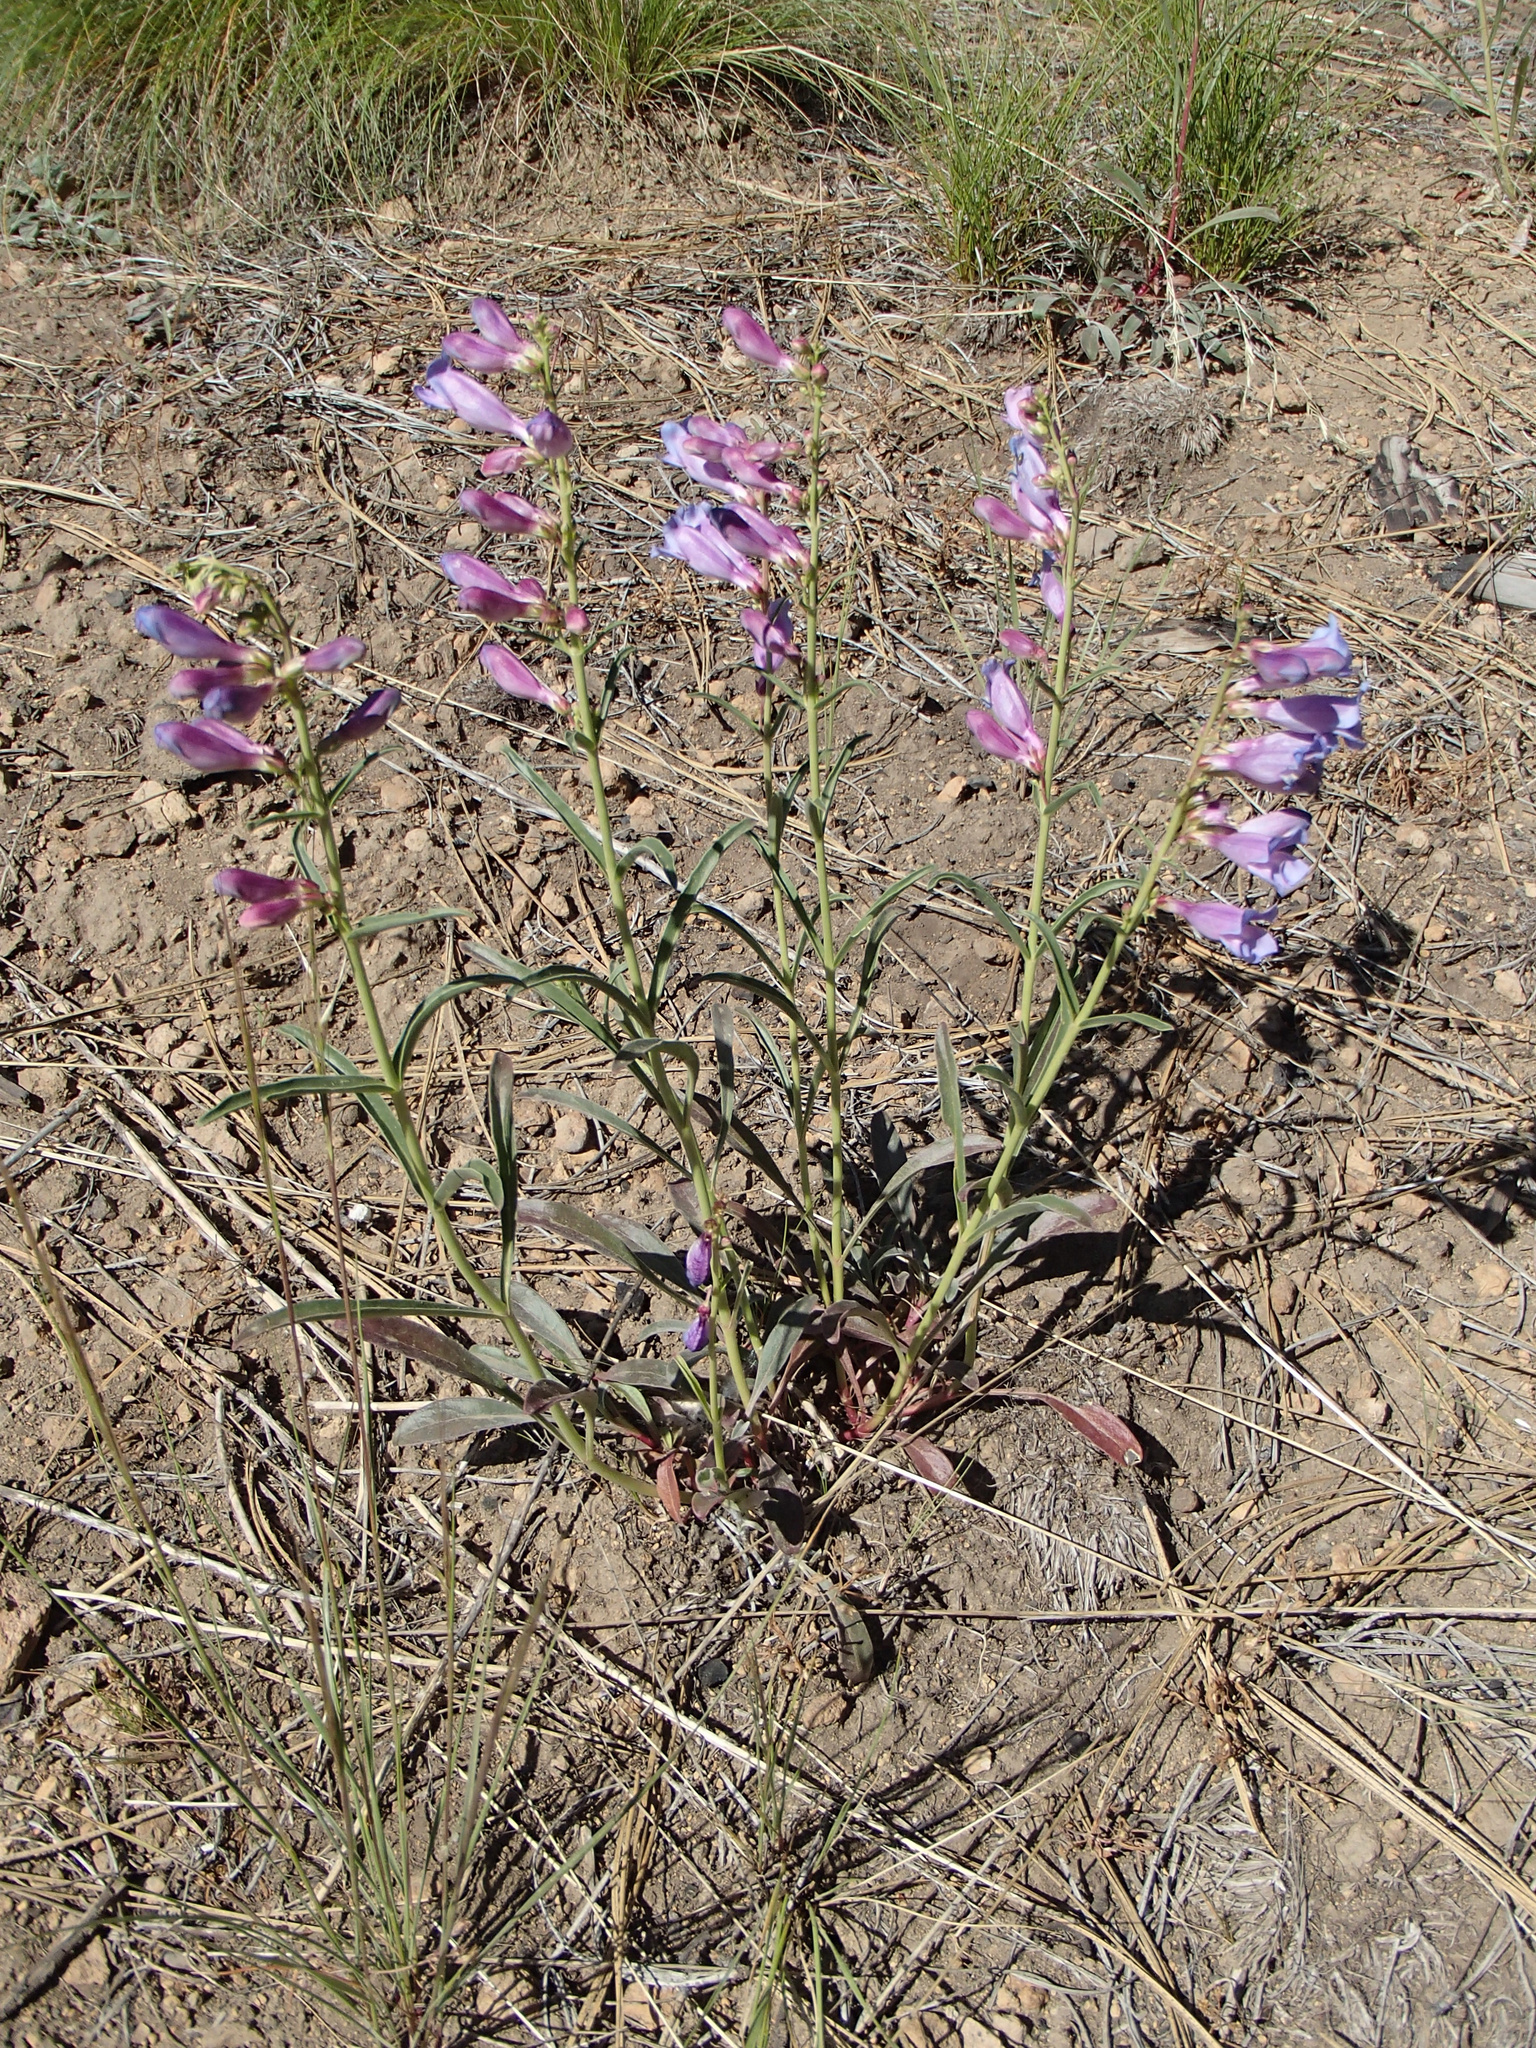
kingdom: Plantae
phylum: Tracheophyta
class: Magnoliopsida
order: Lamiales
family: Plantaginaceae
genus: Penstemon
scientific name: Penstemon speciosus
